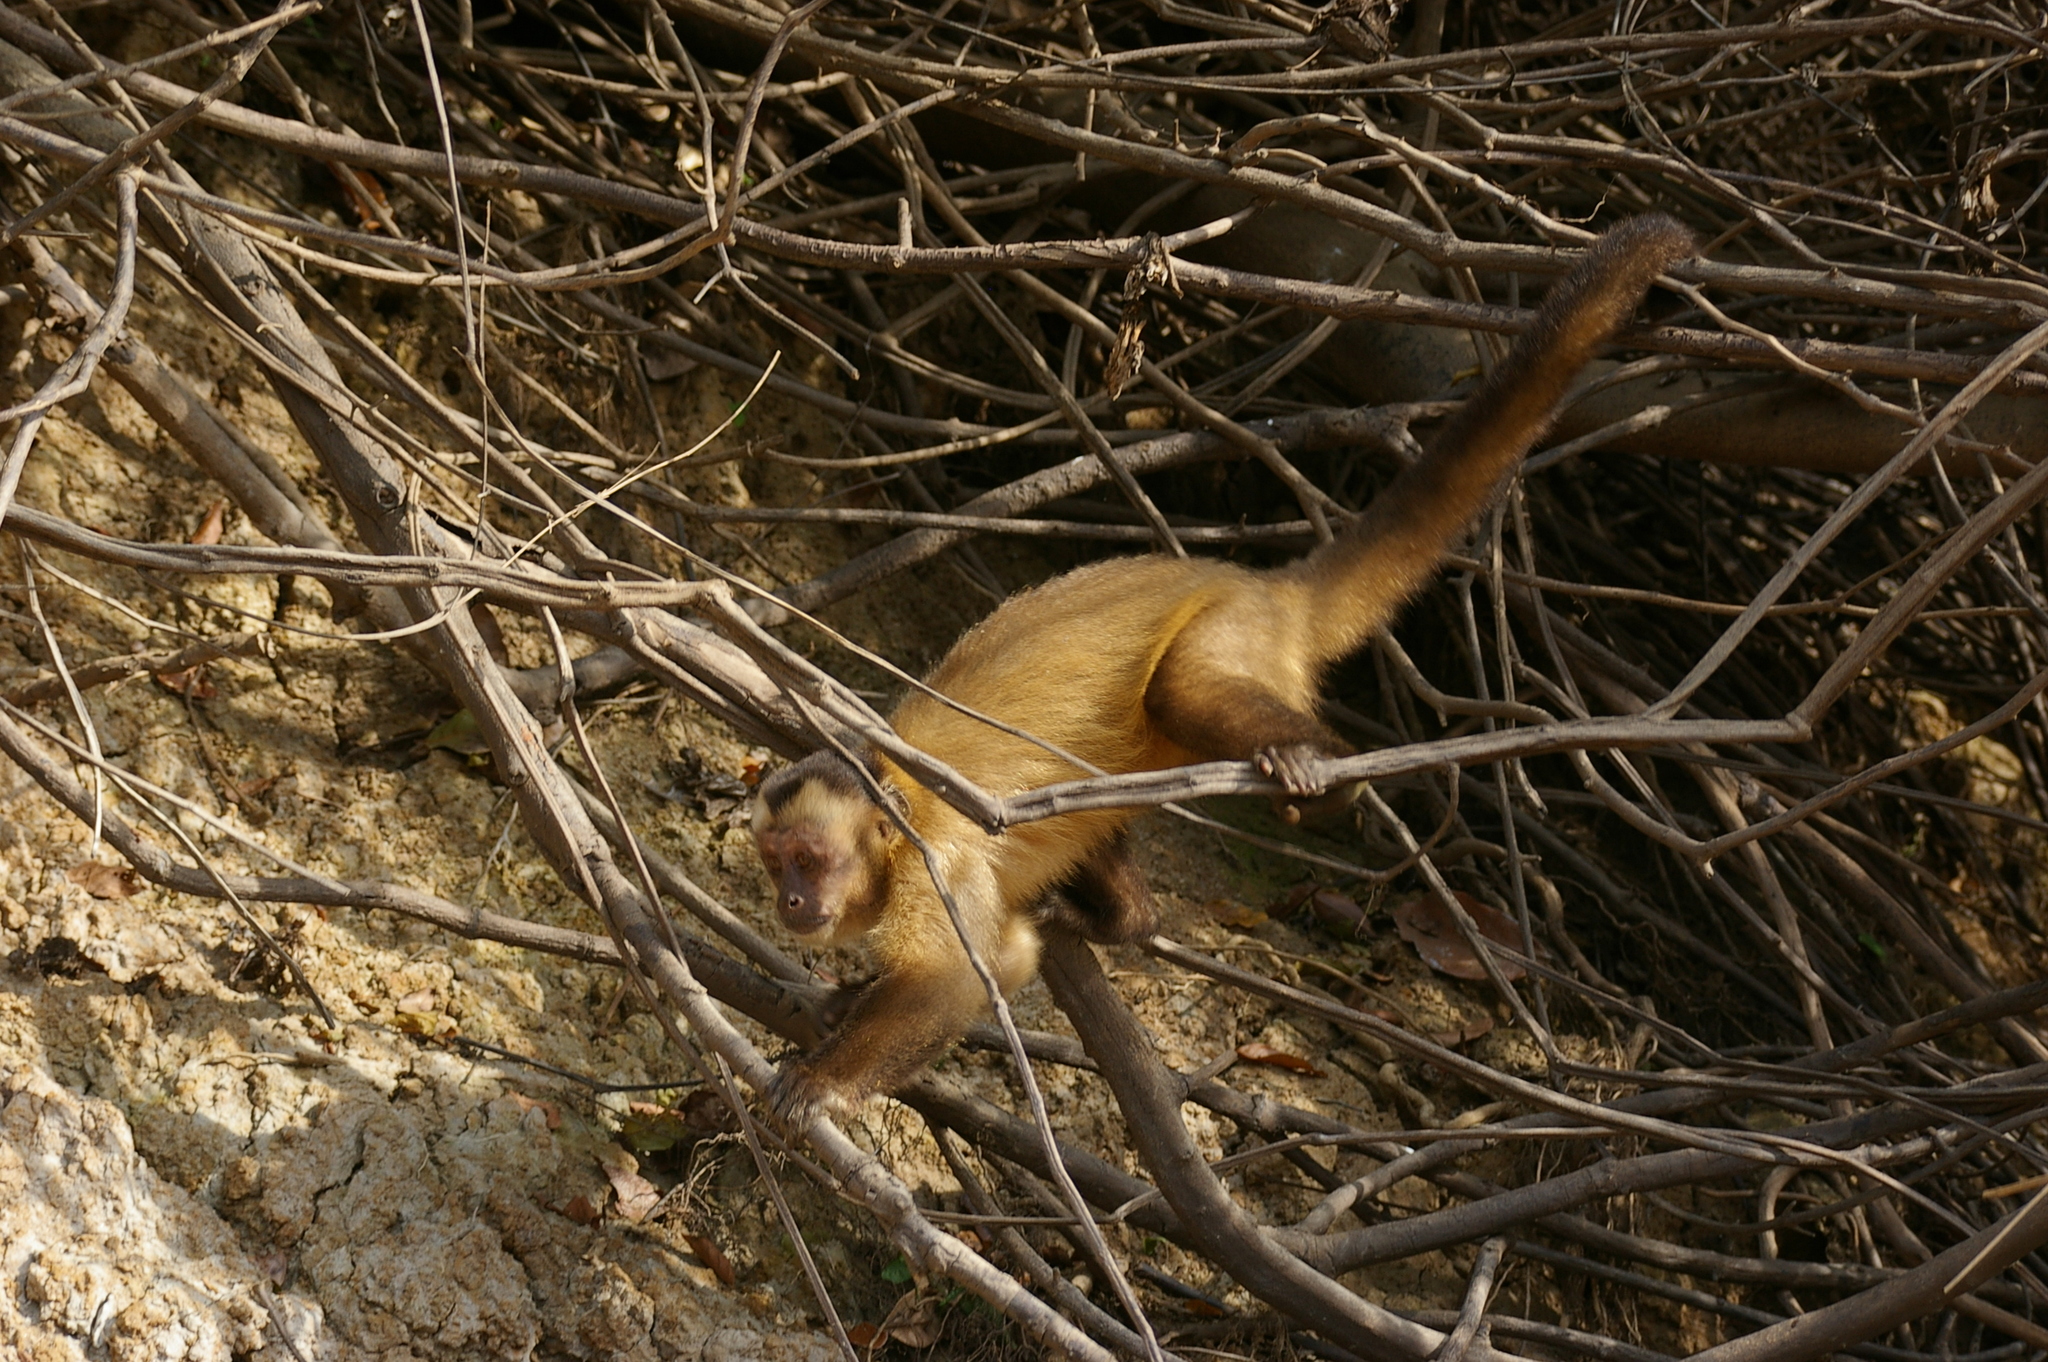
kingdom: Animalia
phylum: Chordata
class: Mammalia
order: Primates
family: Cebidae
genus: Sapajus
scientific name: Sapajus apella
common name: Tufted capuchin
